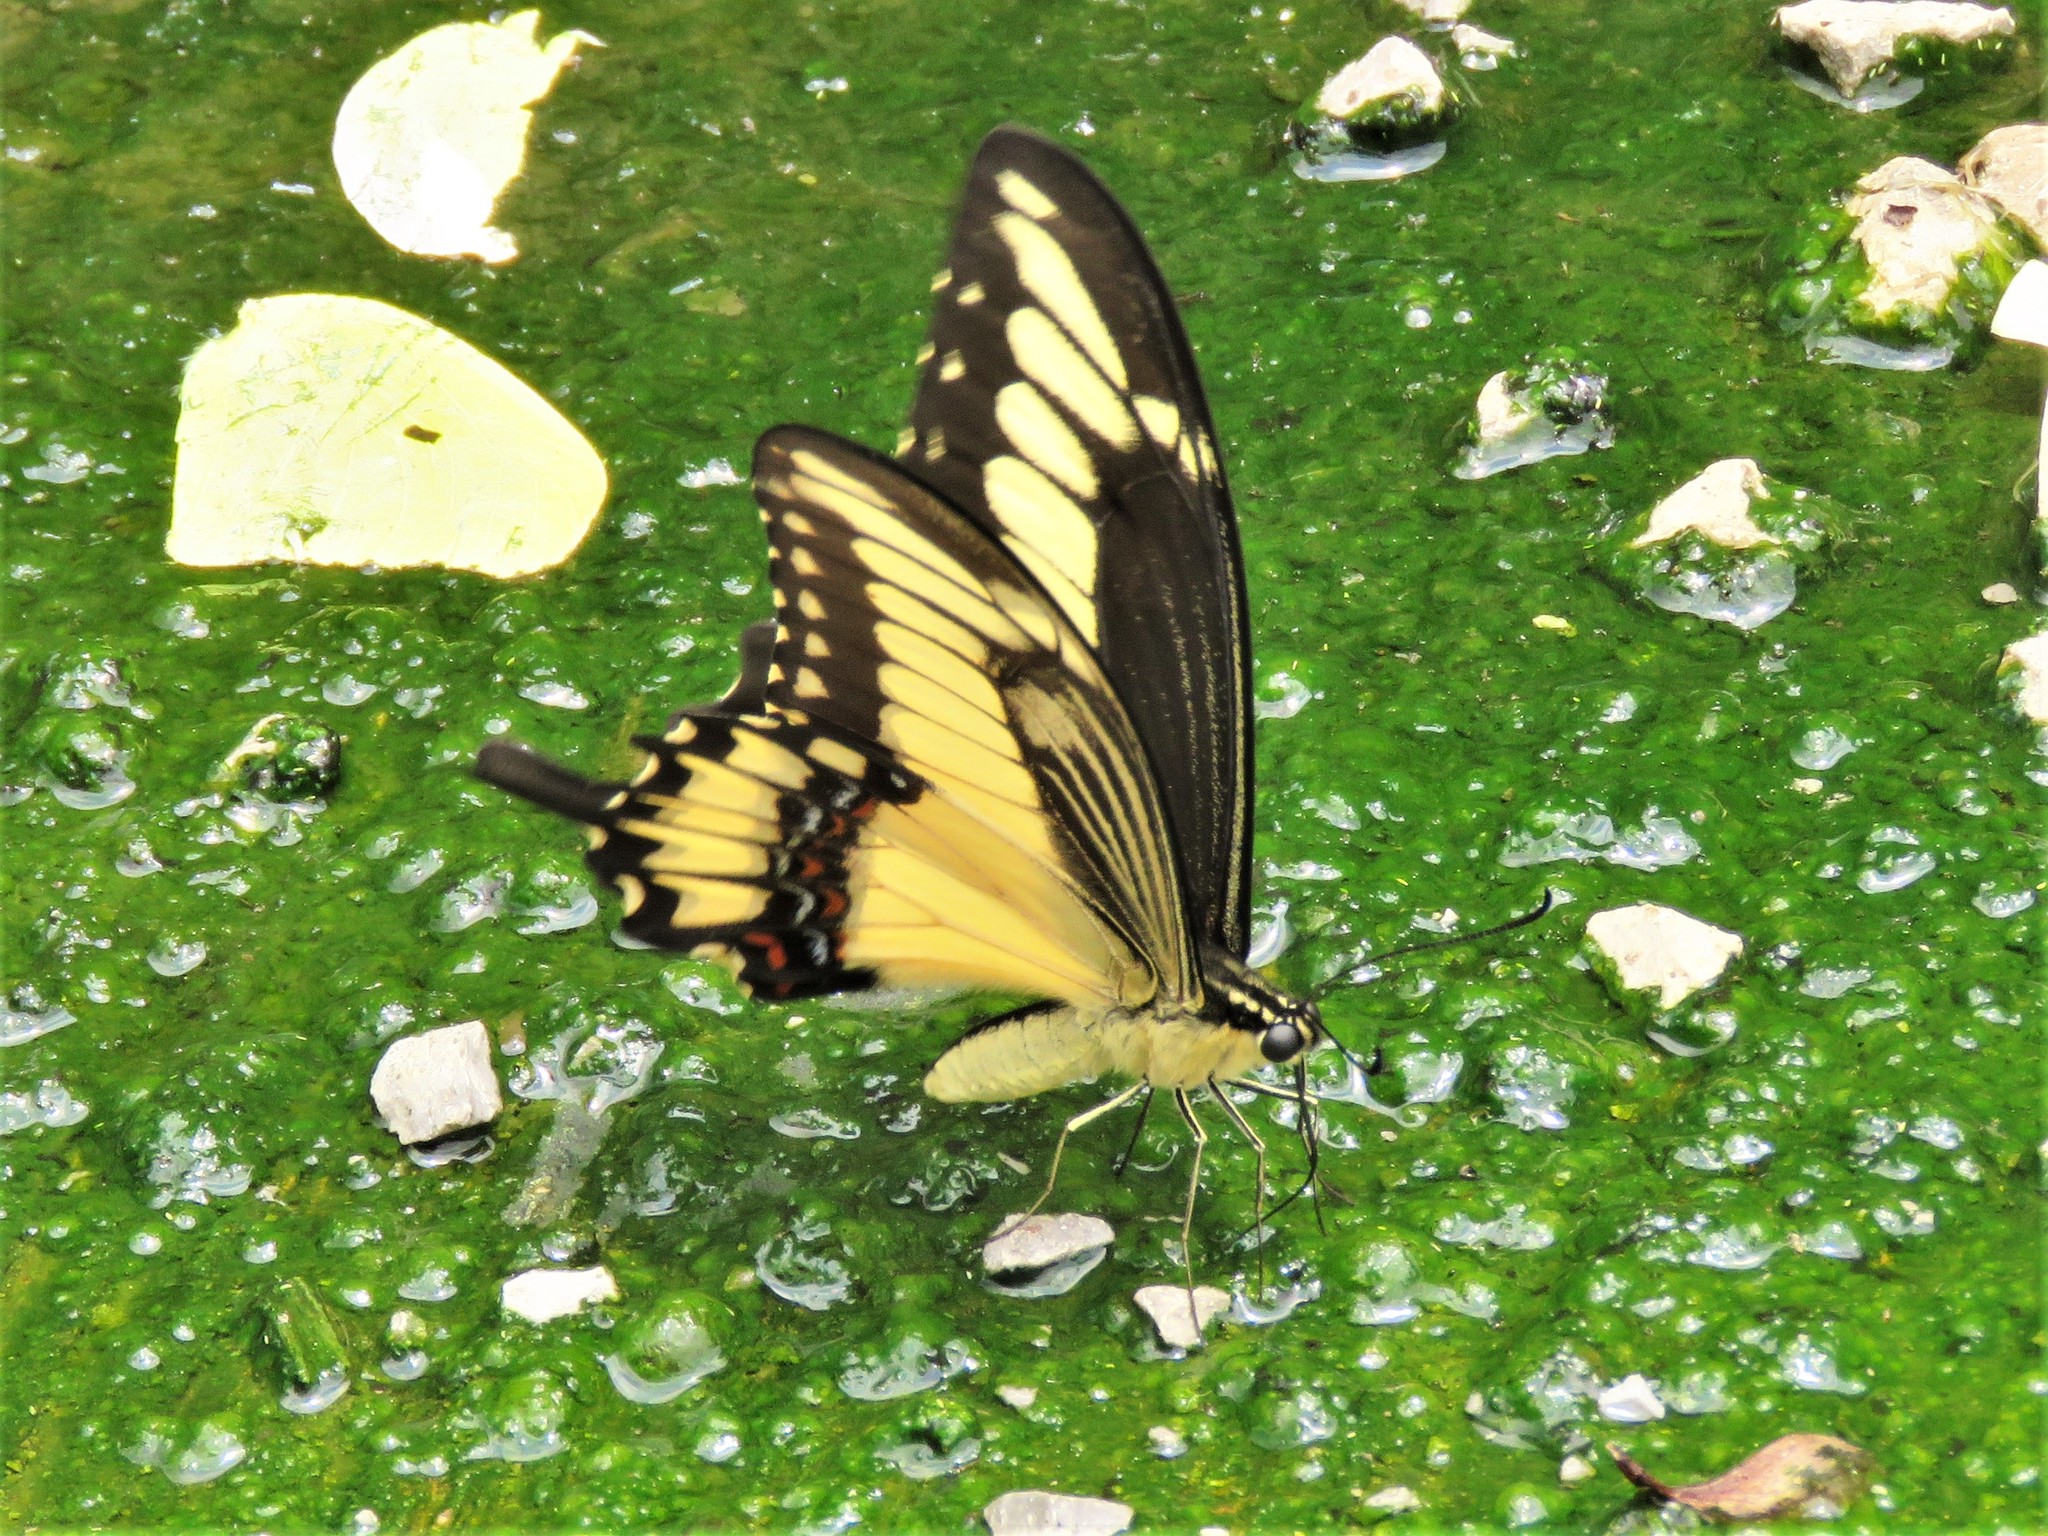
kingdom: Animalia
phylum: Arthropoda
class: Insecta
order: Lepidoptera
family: Papilionidae
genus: Papilio
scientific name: Papilio ornythion
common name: Ornythion swallowtail
